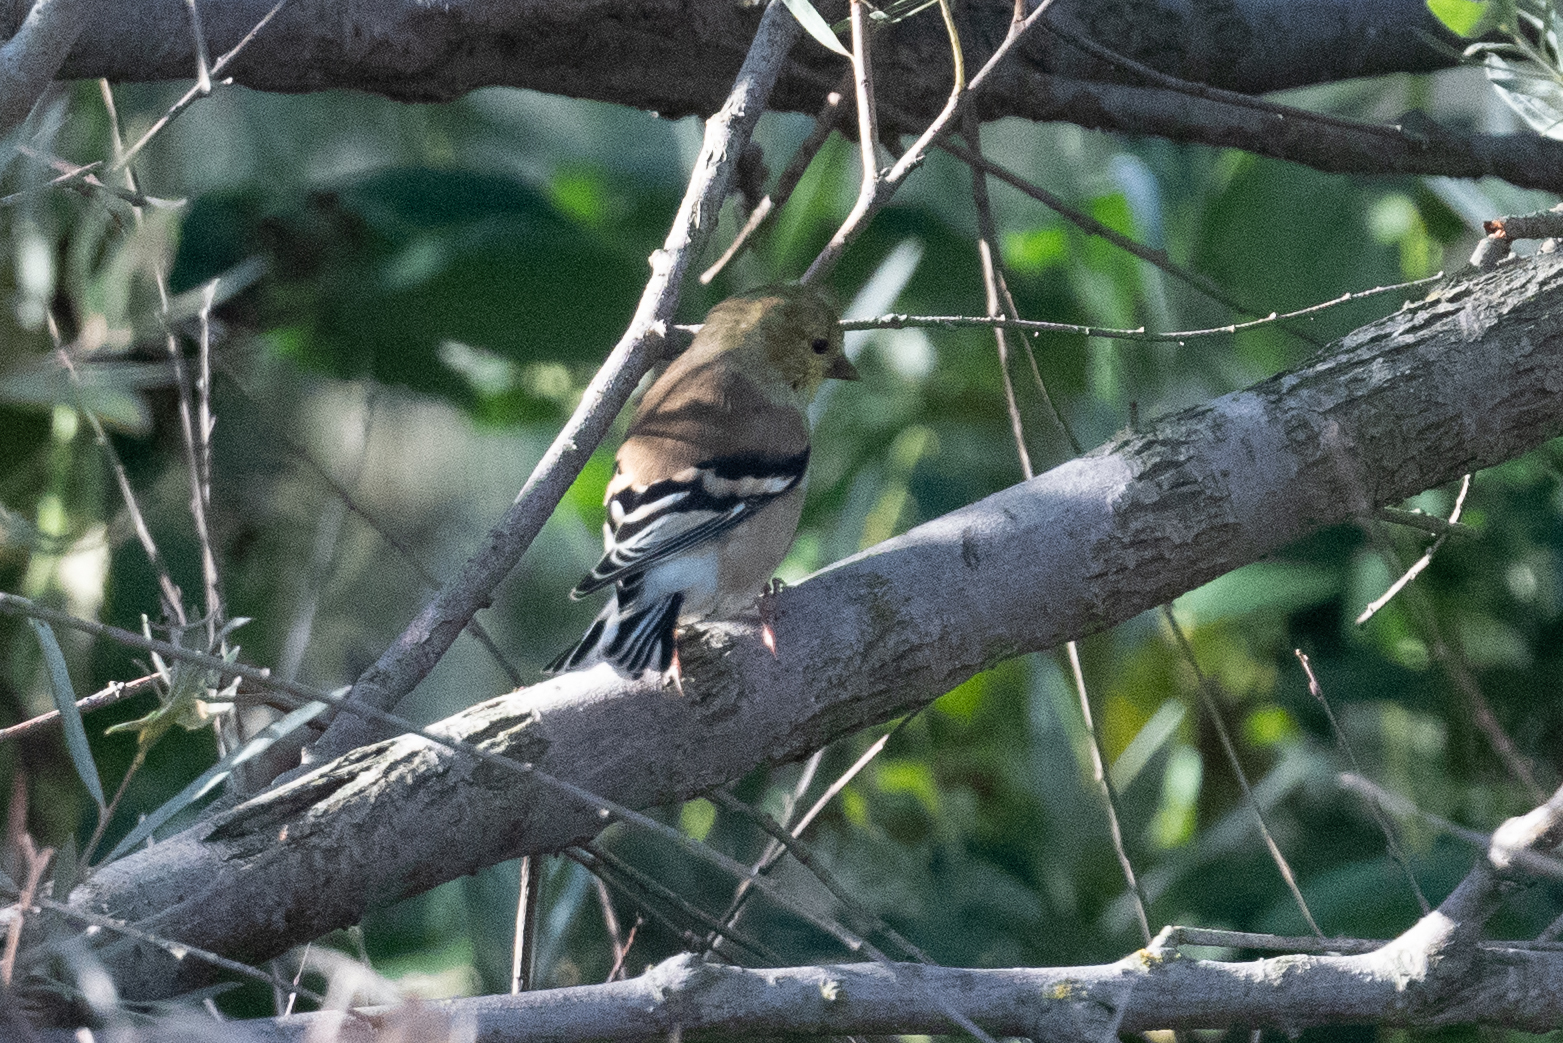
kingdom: Animalia
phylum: Chordata
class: Aves
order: Passeriformes
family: Fringillidae
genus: Spinus
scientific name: Spinus tristis
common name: American goldfinch
